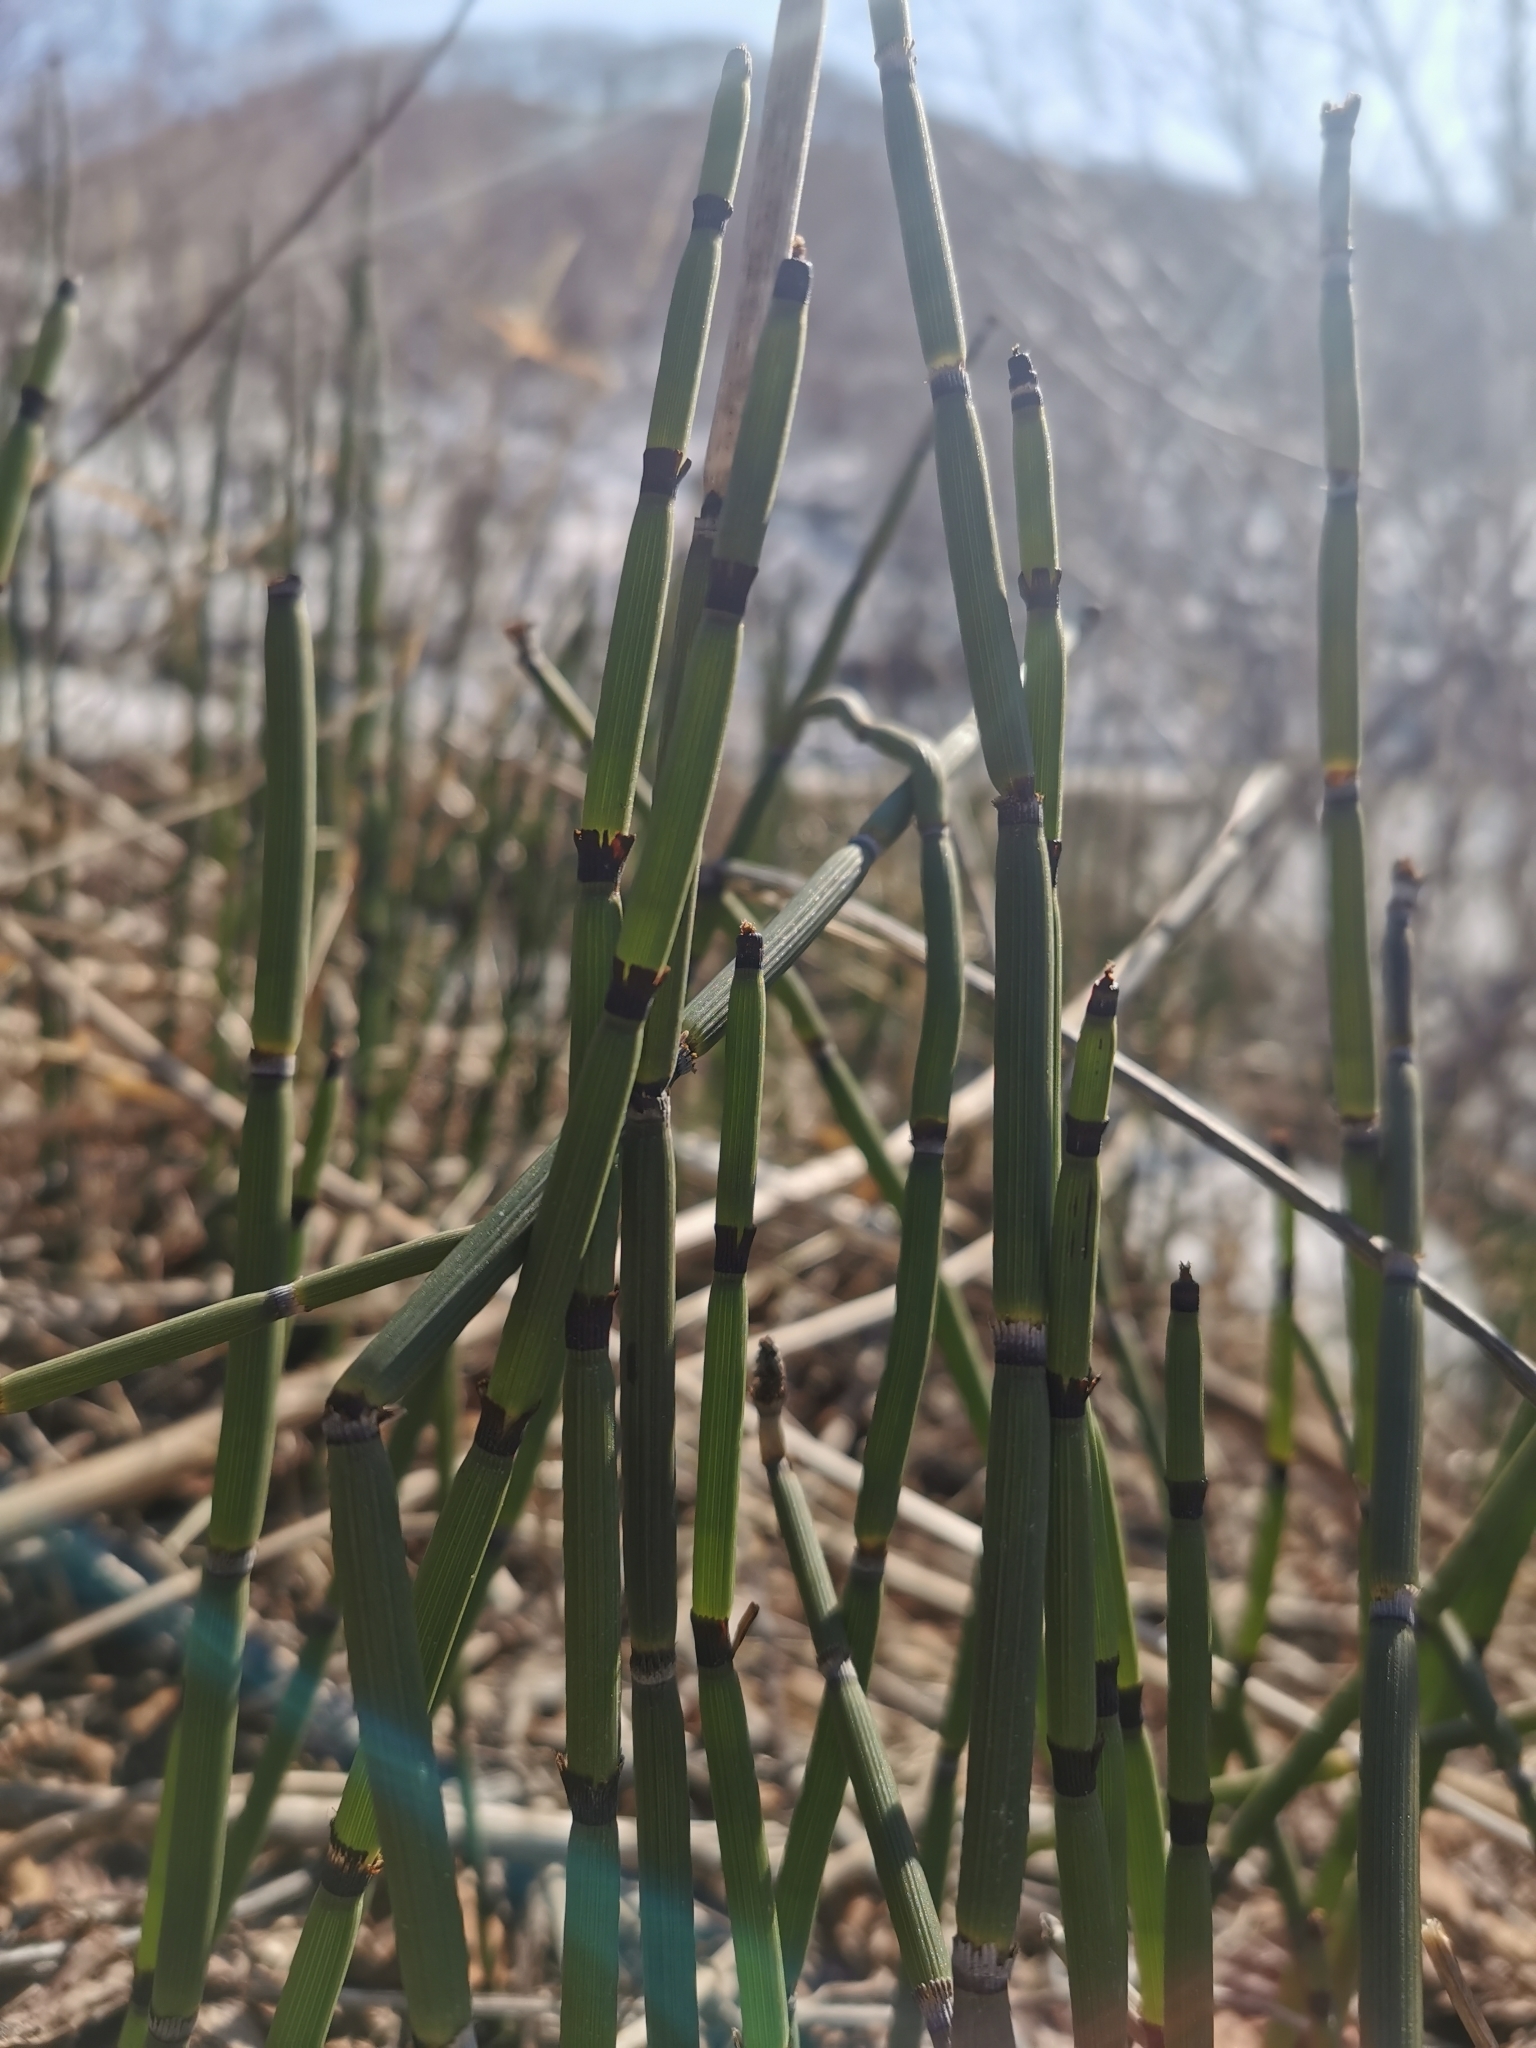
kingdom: Plantae
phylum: Tracheophyta
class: Polypodiopsida
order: Equisetales
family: Equisetaceae
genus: Equisetum
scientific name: Equisetum hyemale
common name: Rough horsetail
